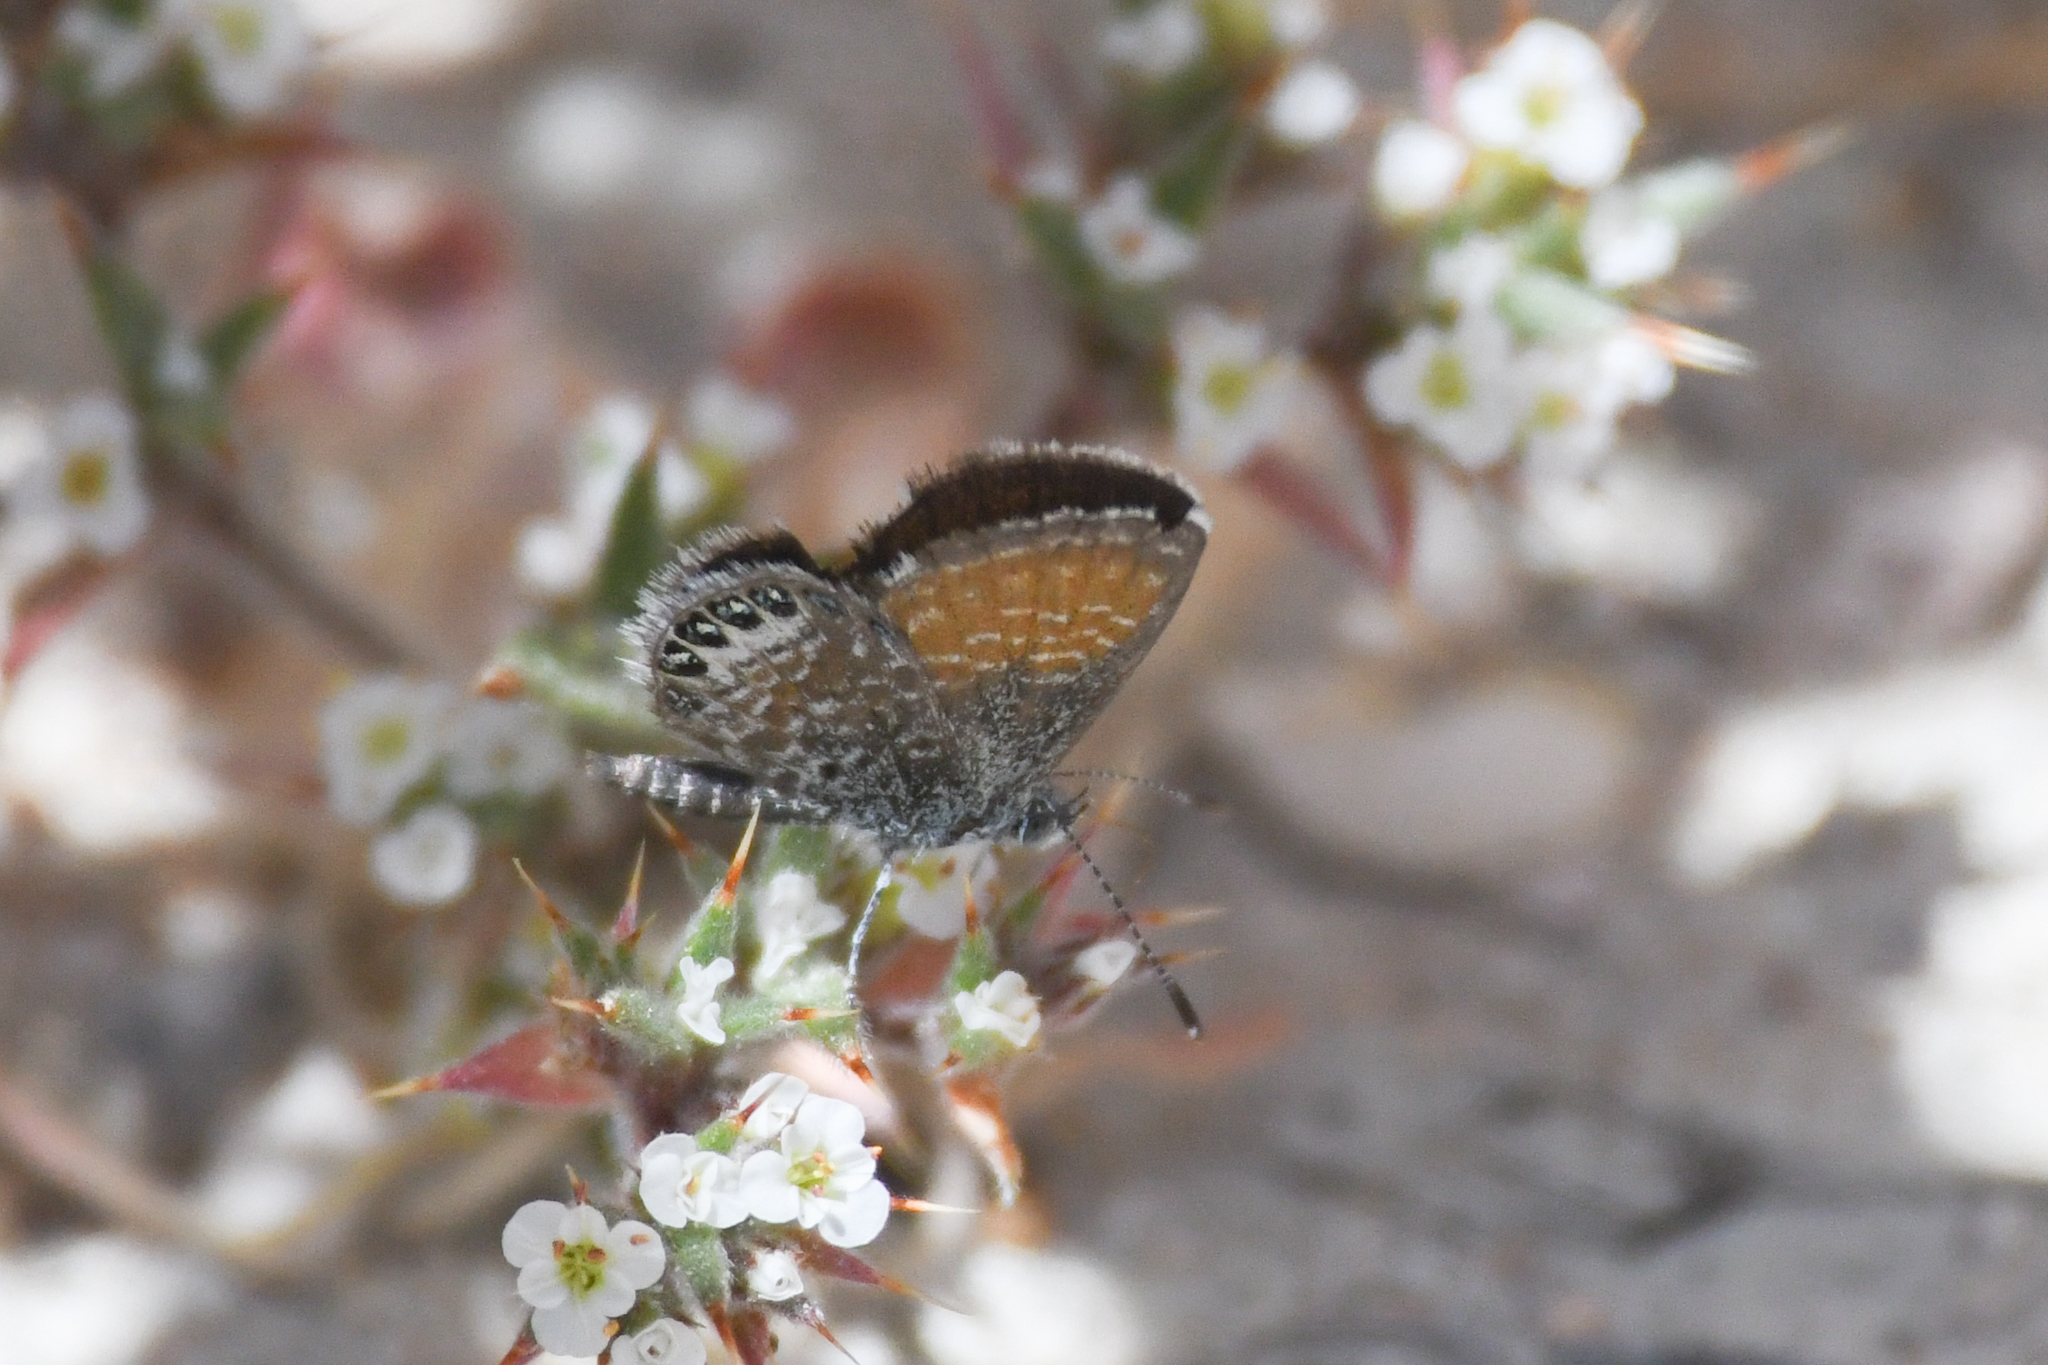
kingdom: Animalia
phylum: Arthropoda
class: Insecta
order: Lepidoptera
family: Lycaenidae
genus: Brephidium
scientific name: Brephidium exilis
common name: Pygmy blue
